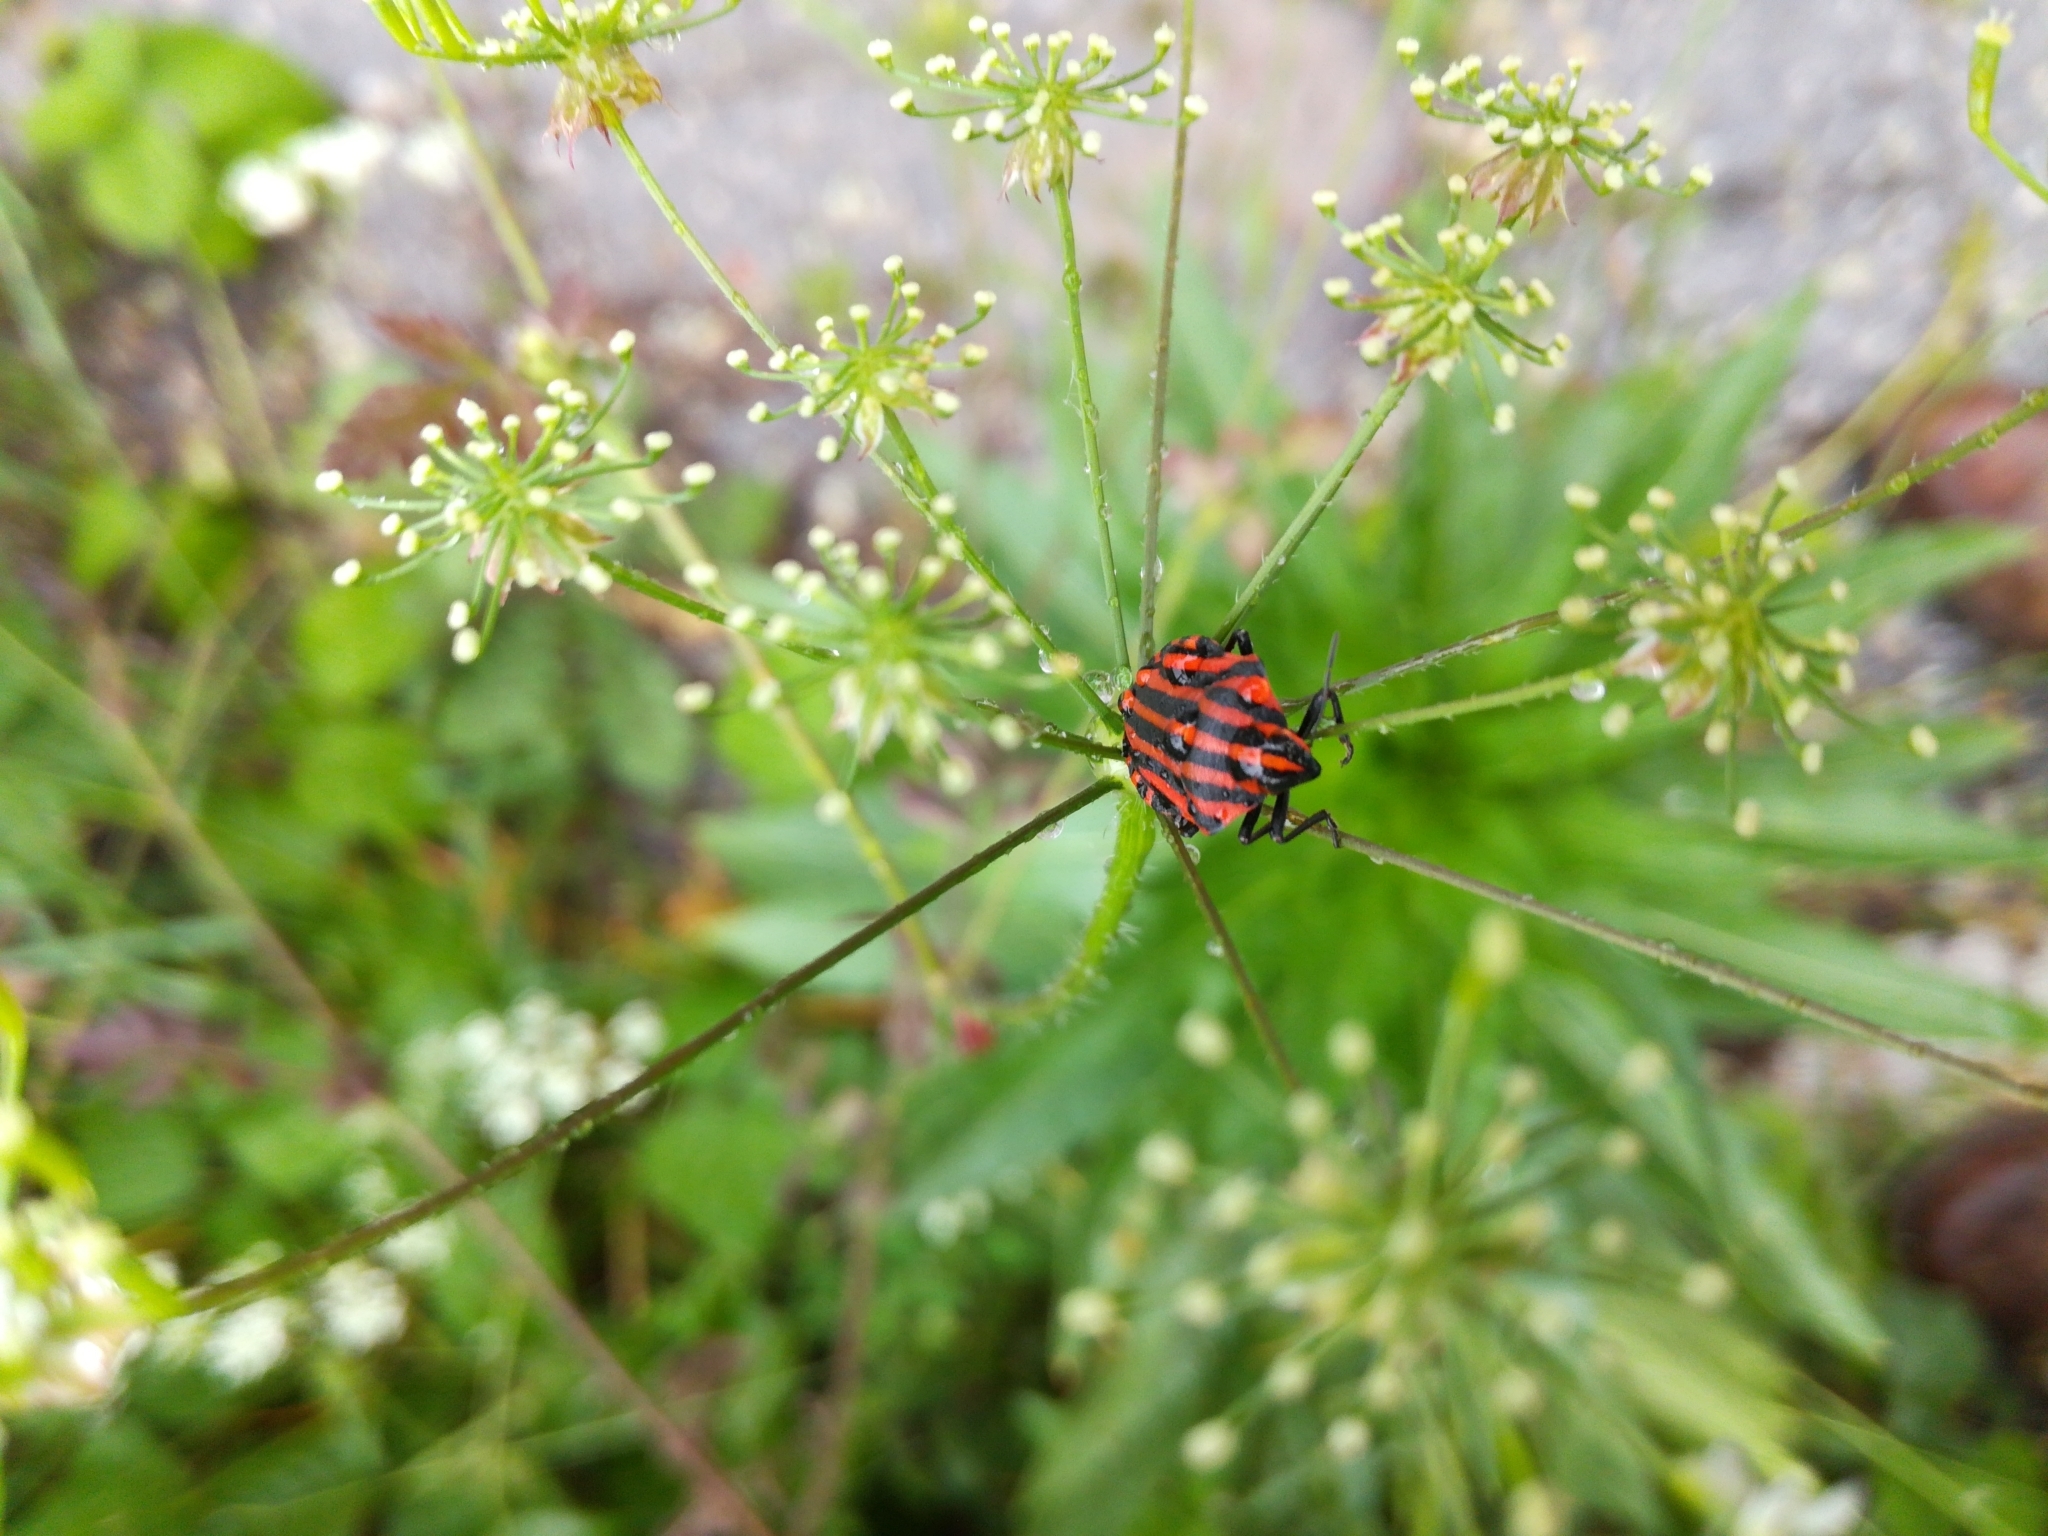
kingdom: Animalia
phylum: Arthropoda
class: Insecta
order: Hemiptera
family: Pentatomidae
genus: Graphosoma
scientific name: Graphosoma italicum
